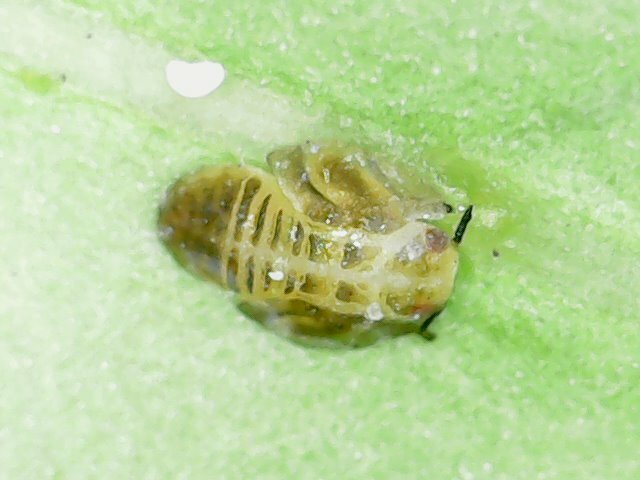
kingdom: Animalia
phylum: Arthropoda
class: Insecta
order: Hemiptera
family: Liviidae
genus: Diaphorina
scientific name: Diaphorina citri
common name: Asian citrus psyllid
